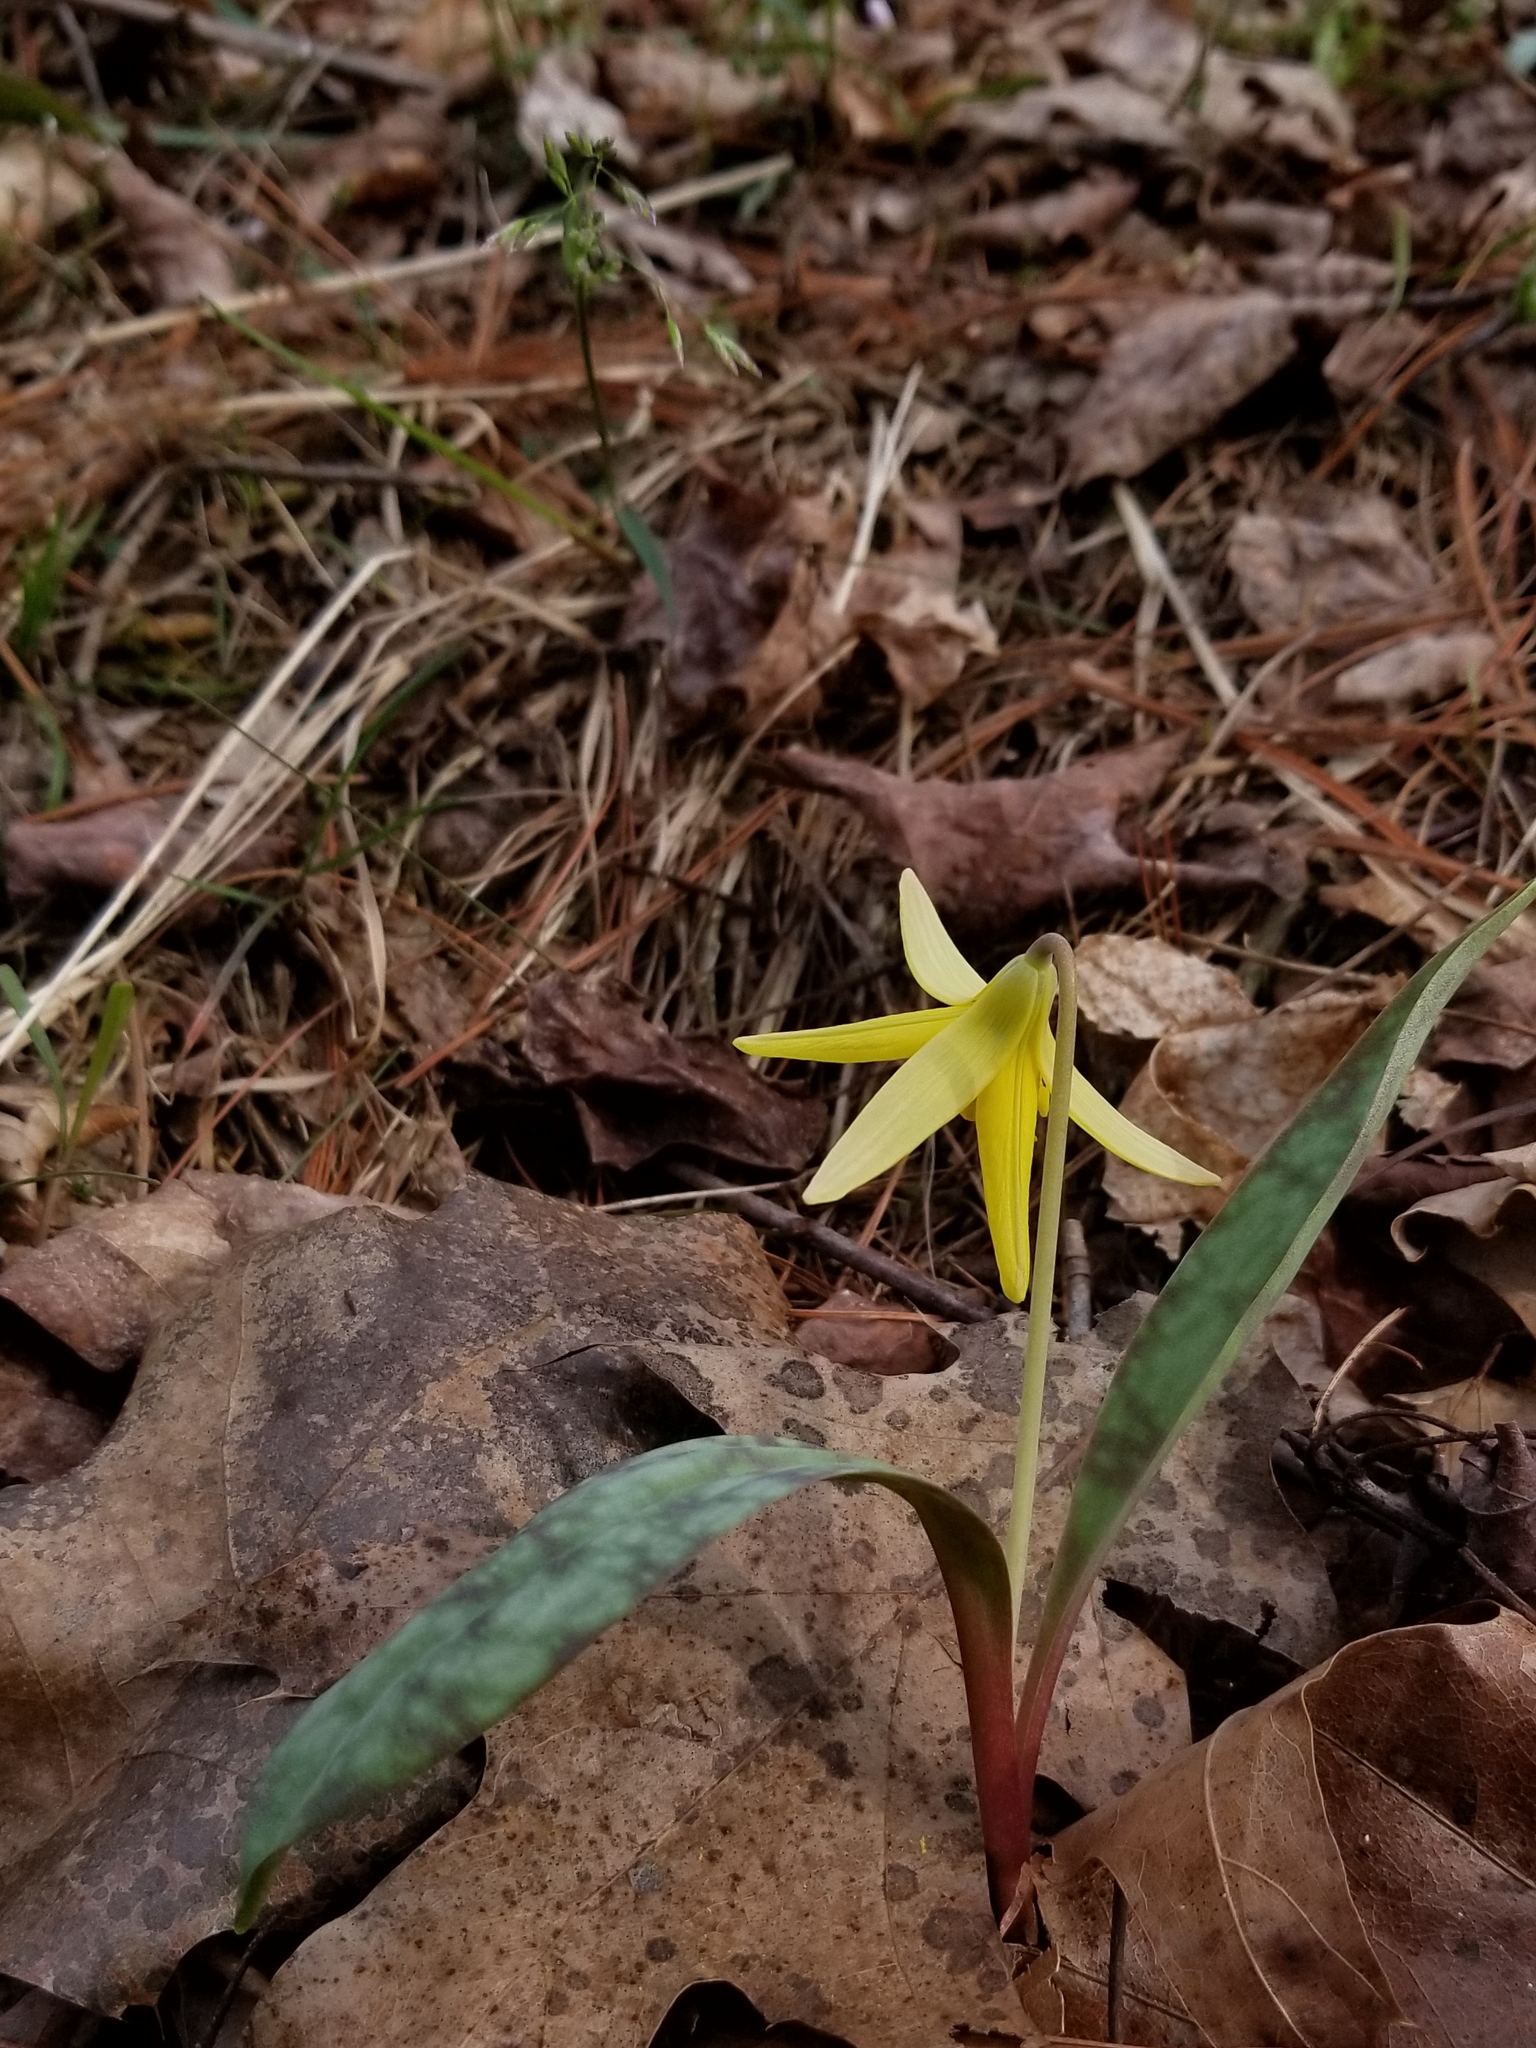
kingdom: Plantae
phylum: Tracheophyta
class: Liliopsida
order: Liliales
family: Liliaceae
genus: Erythronium
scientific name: Erythronium americanum
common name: Yellow adder's-tongue
